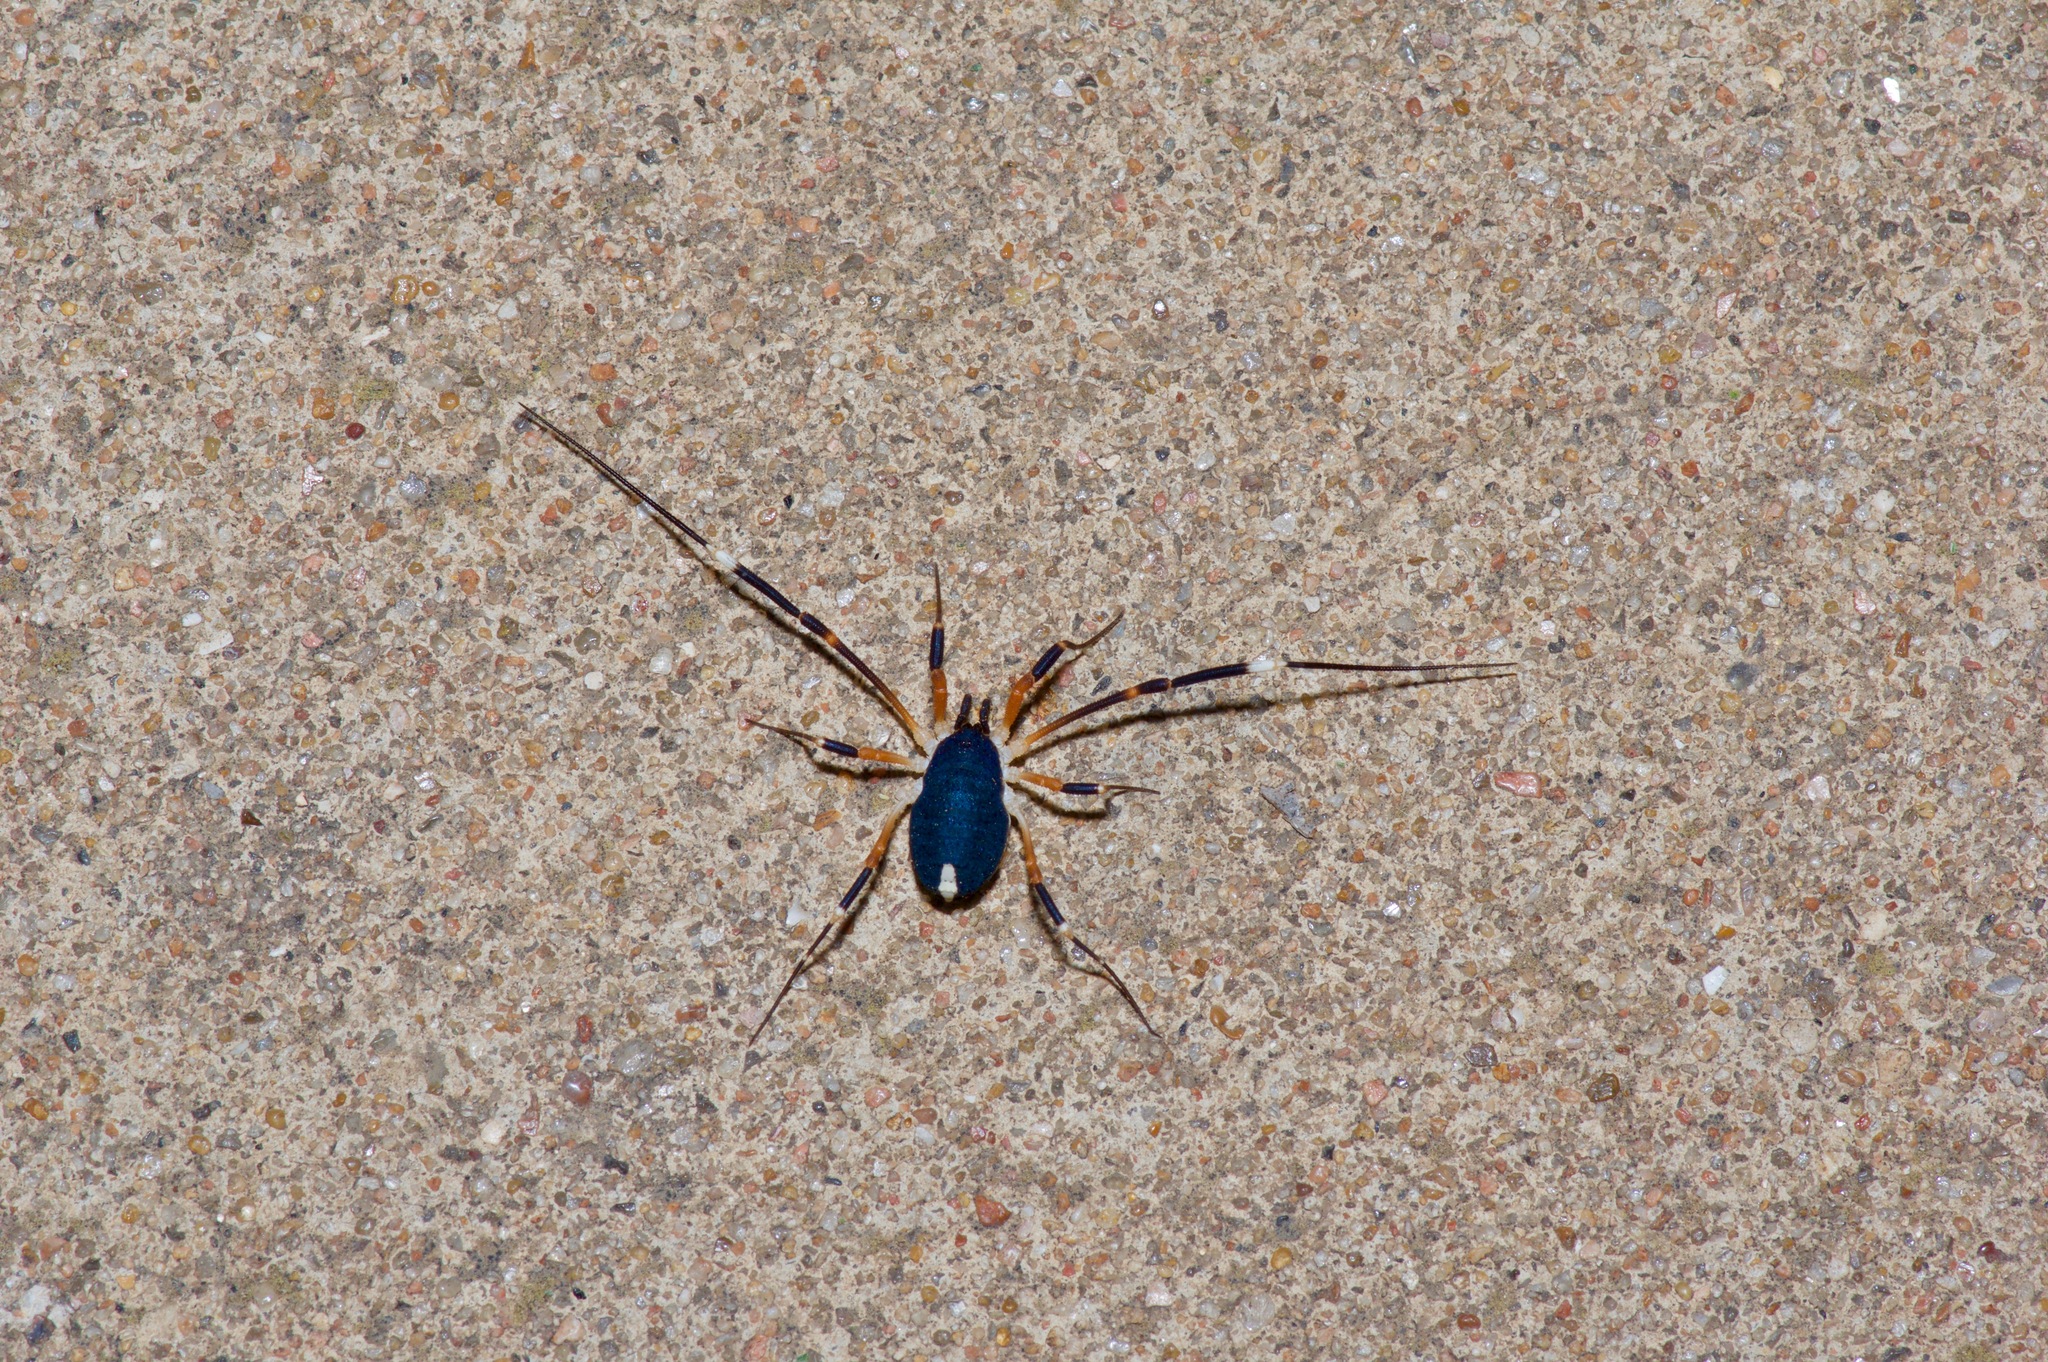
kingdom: Animalia
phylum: Arthropoda
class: Arachnida
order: Opiliones
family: Globipedidae
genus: Dalquestia
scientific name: Dalquestia formosa
